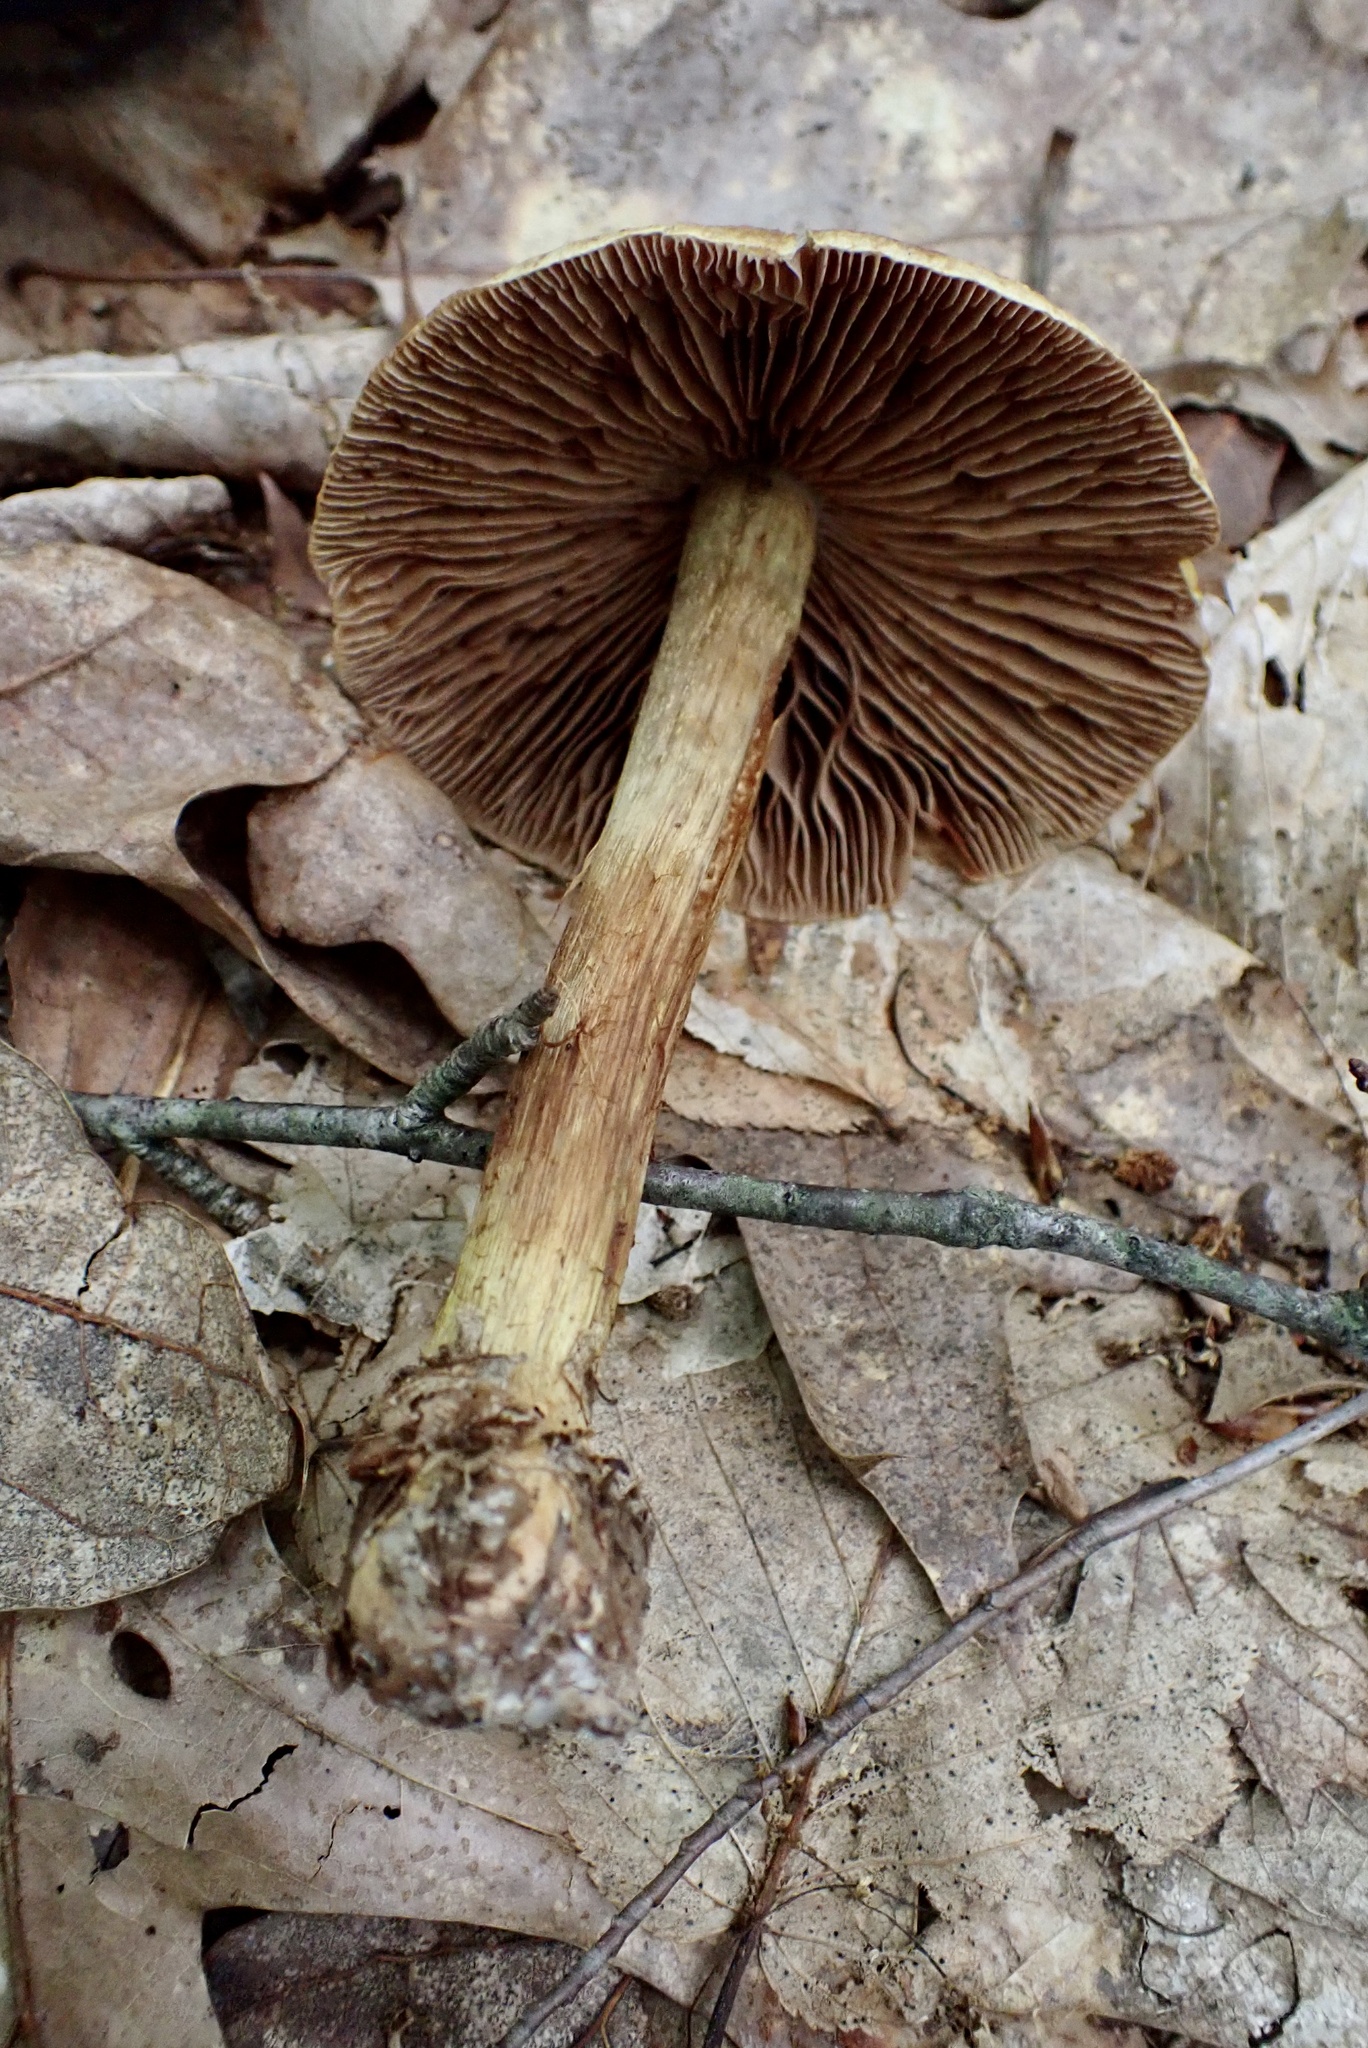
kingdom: Fungi
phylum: Basidiomycota
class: Agaricomycetes
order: Agaricales
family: Cortinariaceae
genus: Cortinarius
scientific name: Cortinarius corrugatus
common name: Wrinkled cortinarius
